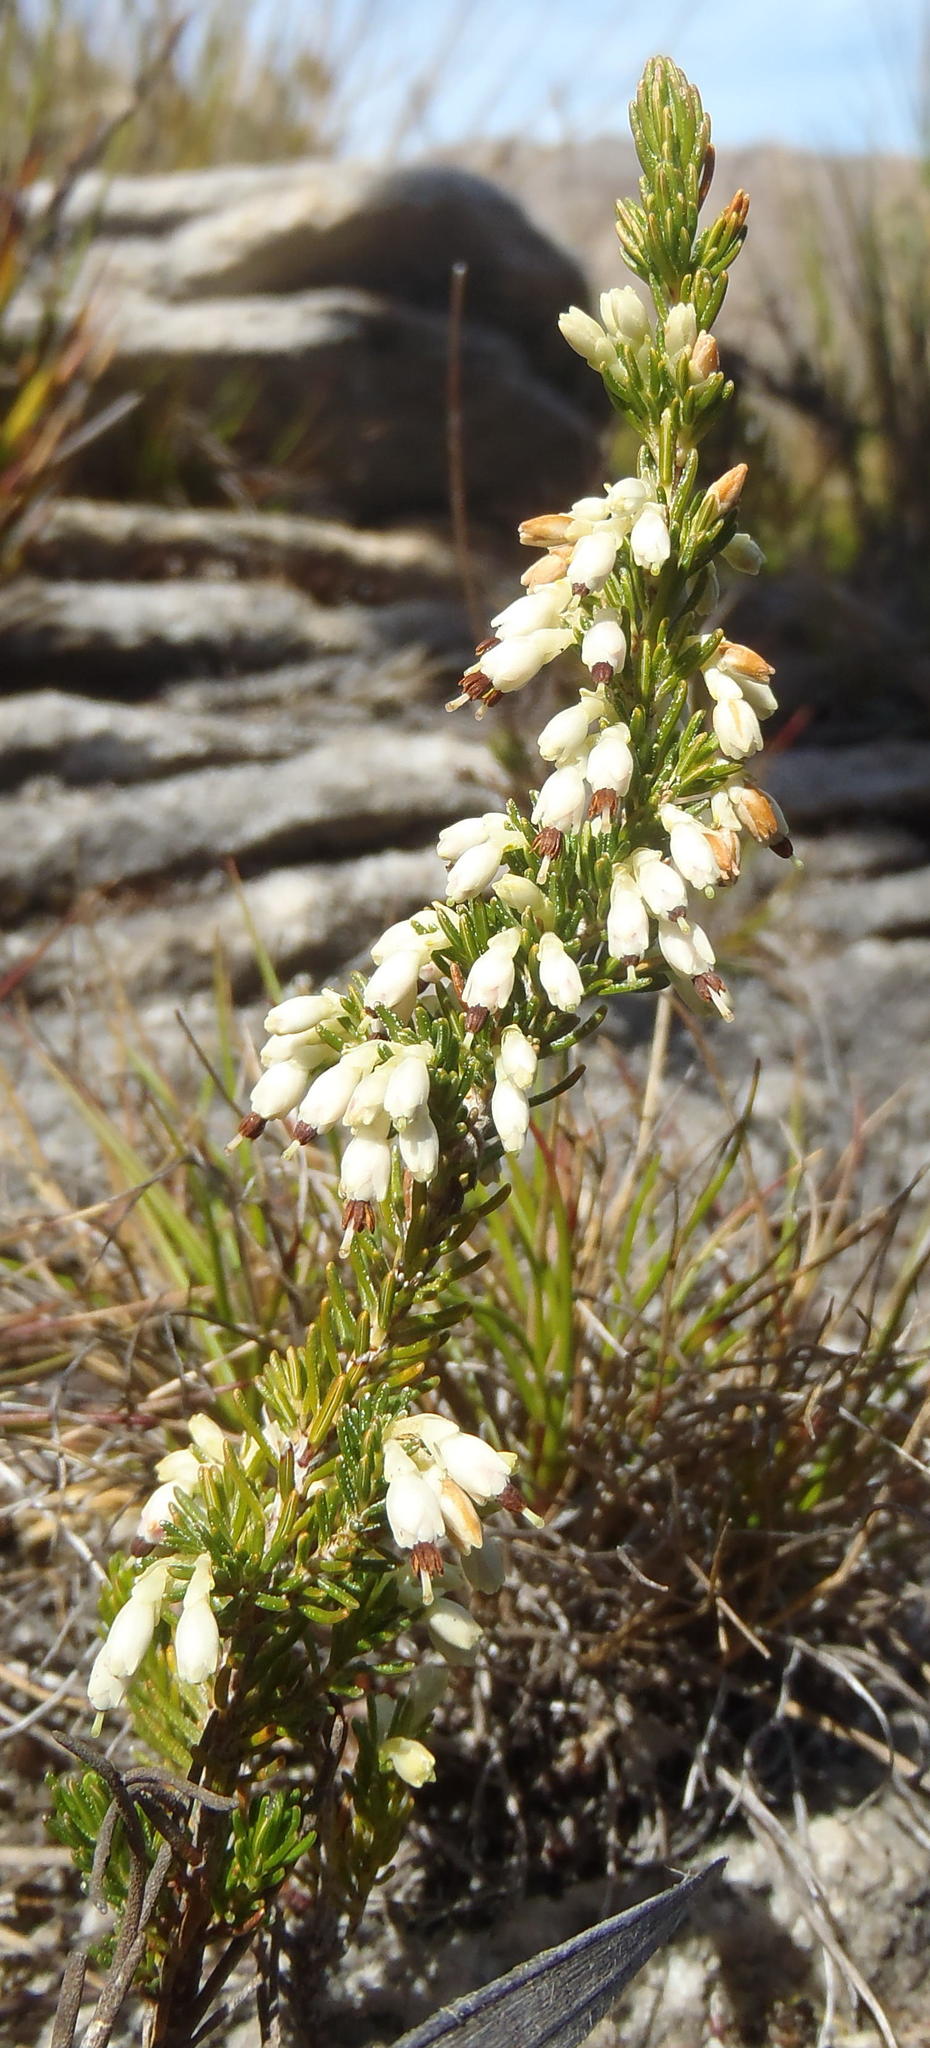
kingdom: Plantae
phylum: Tracheophyta
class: Magnoliopsida
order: Ericales
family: Ericaceae
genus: Erica
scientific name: Erica imbricata
